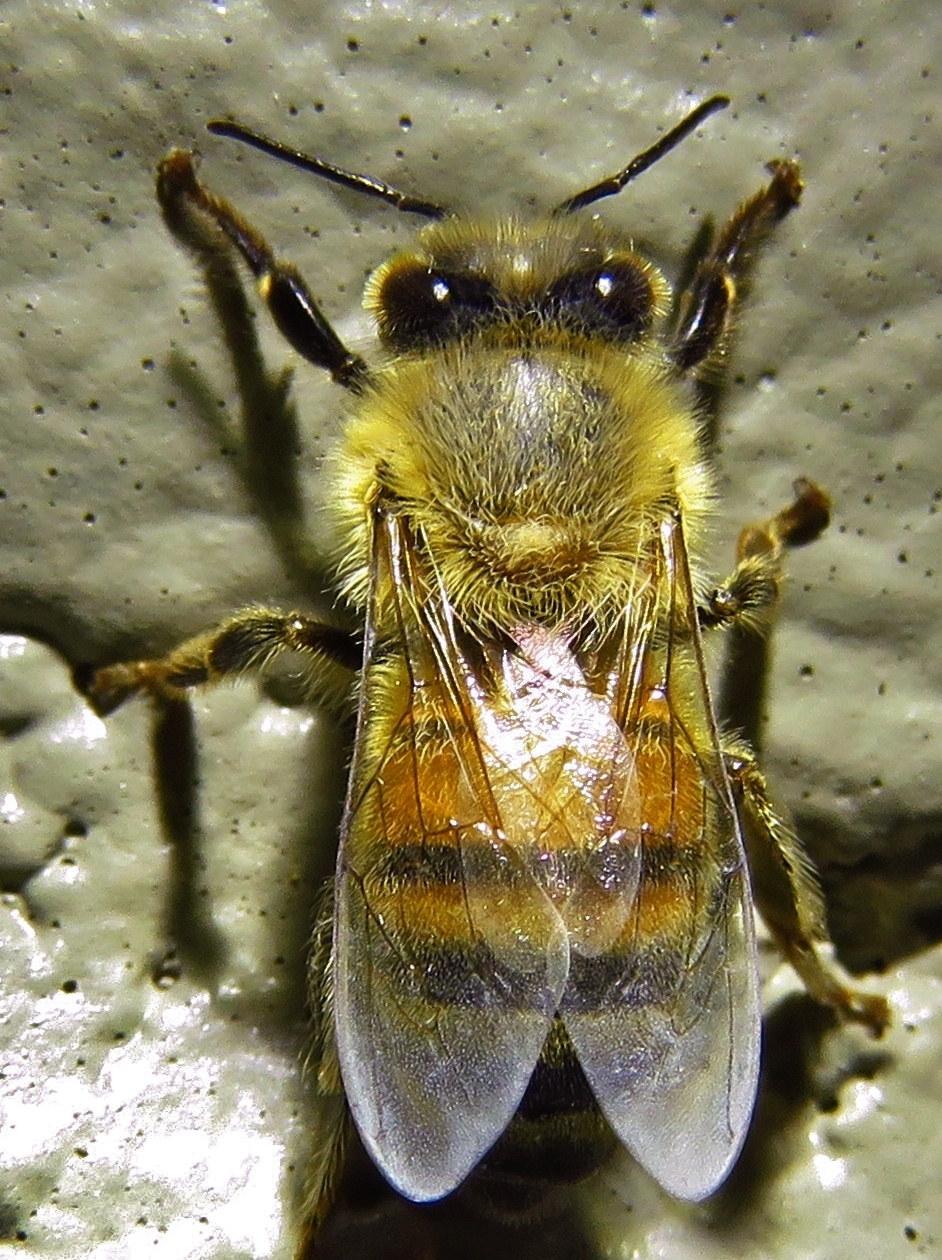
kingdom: Animalia
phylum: Arthropoda
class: Insecta
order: Hymenoptera
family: Apidae
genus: Apis
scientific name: Apis mellifera
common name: Honey bee
